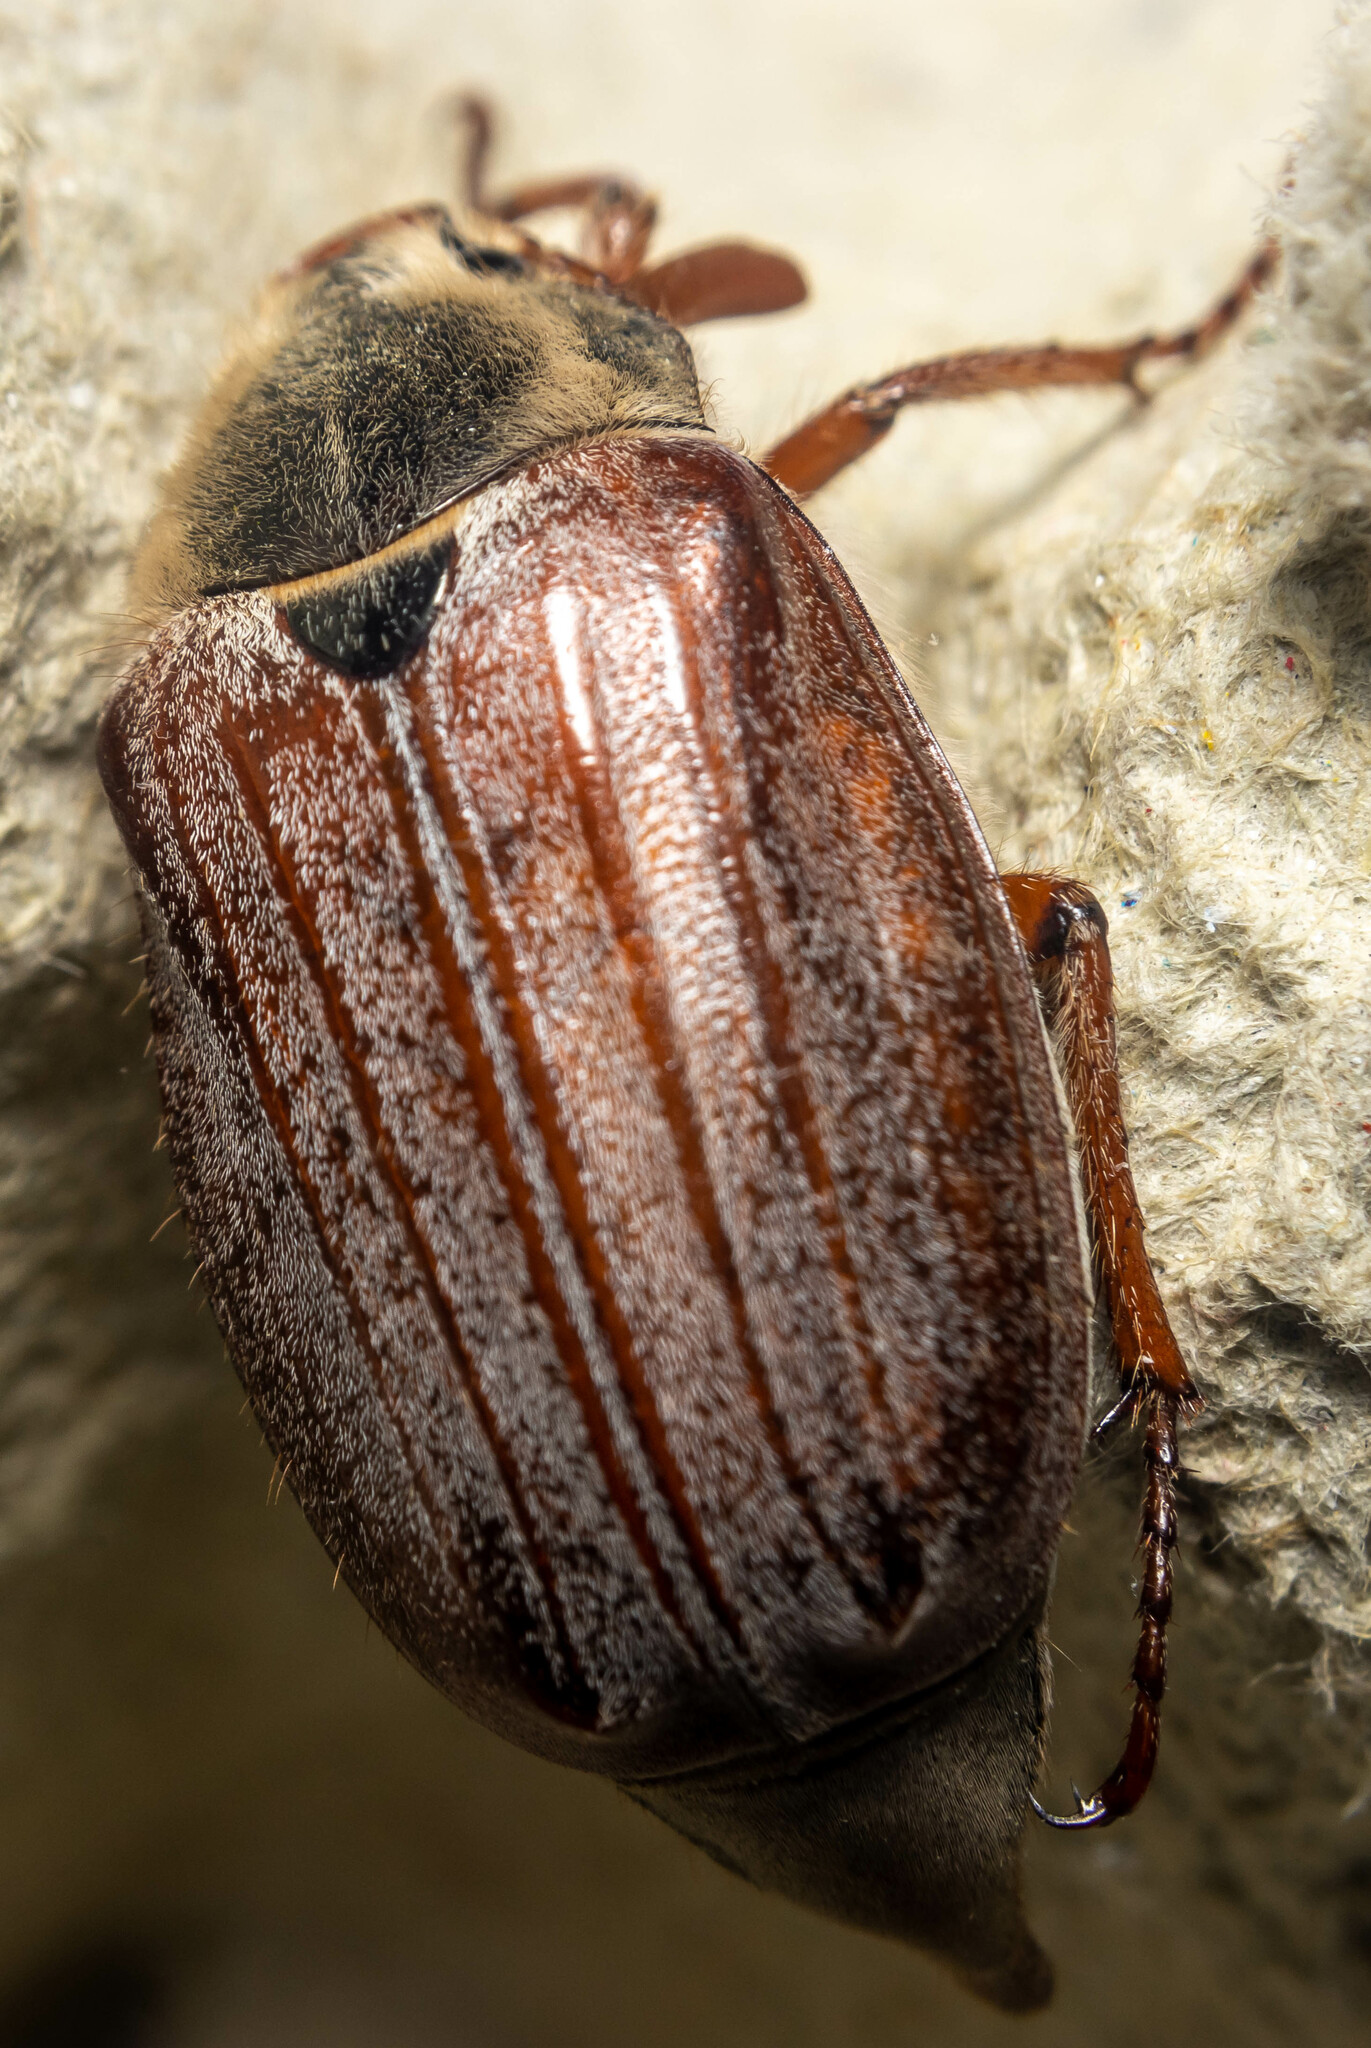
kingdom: Animalia
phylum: Arthropoda
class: Insecta
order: Coleoptera
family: Scarabaeidae
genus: Melolontha
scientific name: Melolontha melolontha
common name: Cockchafer maybeetle
